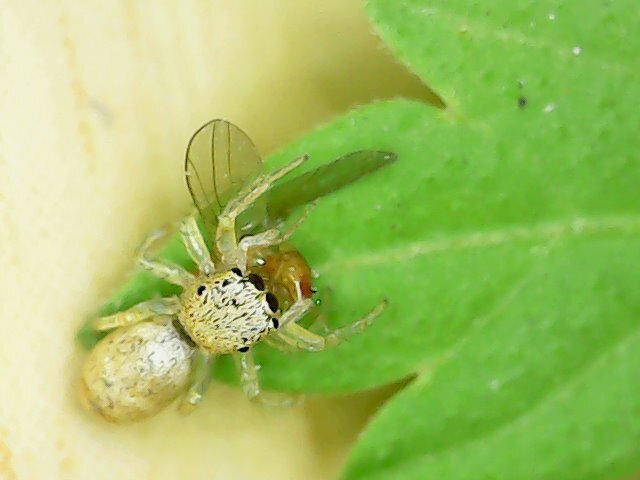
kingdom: Animalia
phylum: Arthropoda
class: Arachnida
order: Araneae
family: Salticidae
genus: Cosmophasis
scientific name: Cosmophasis lami
